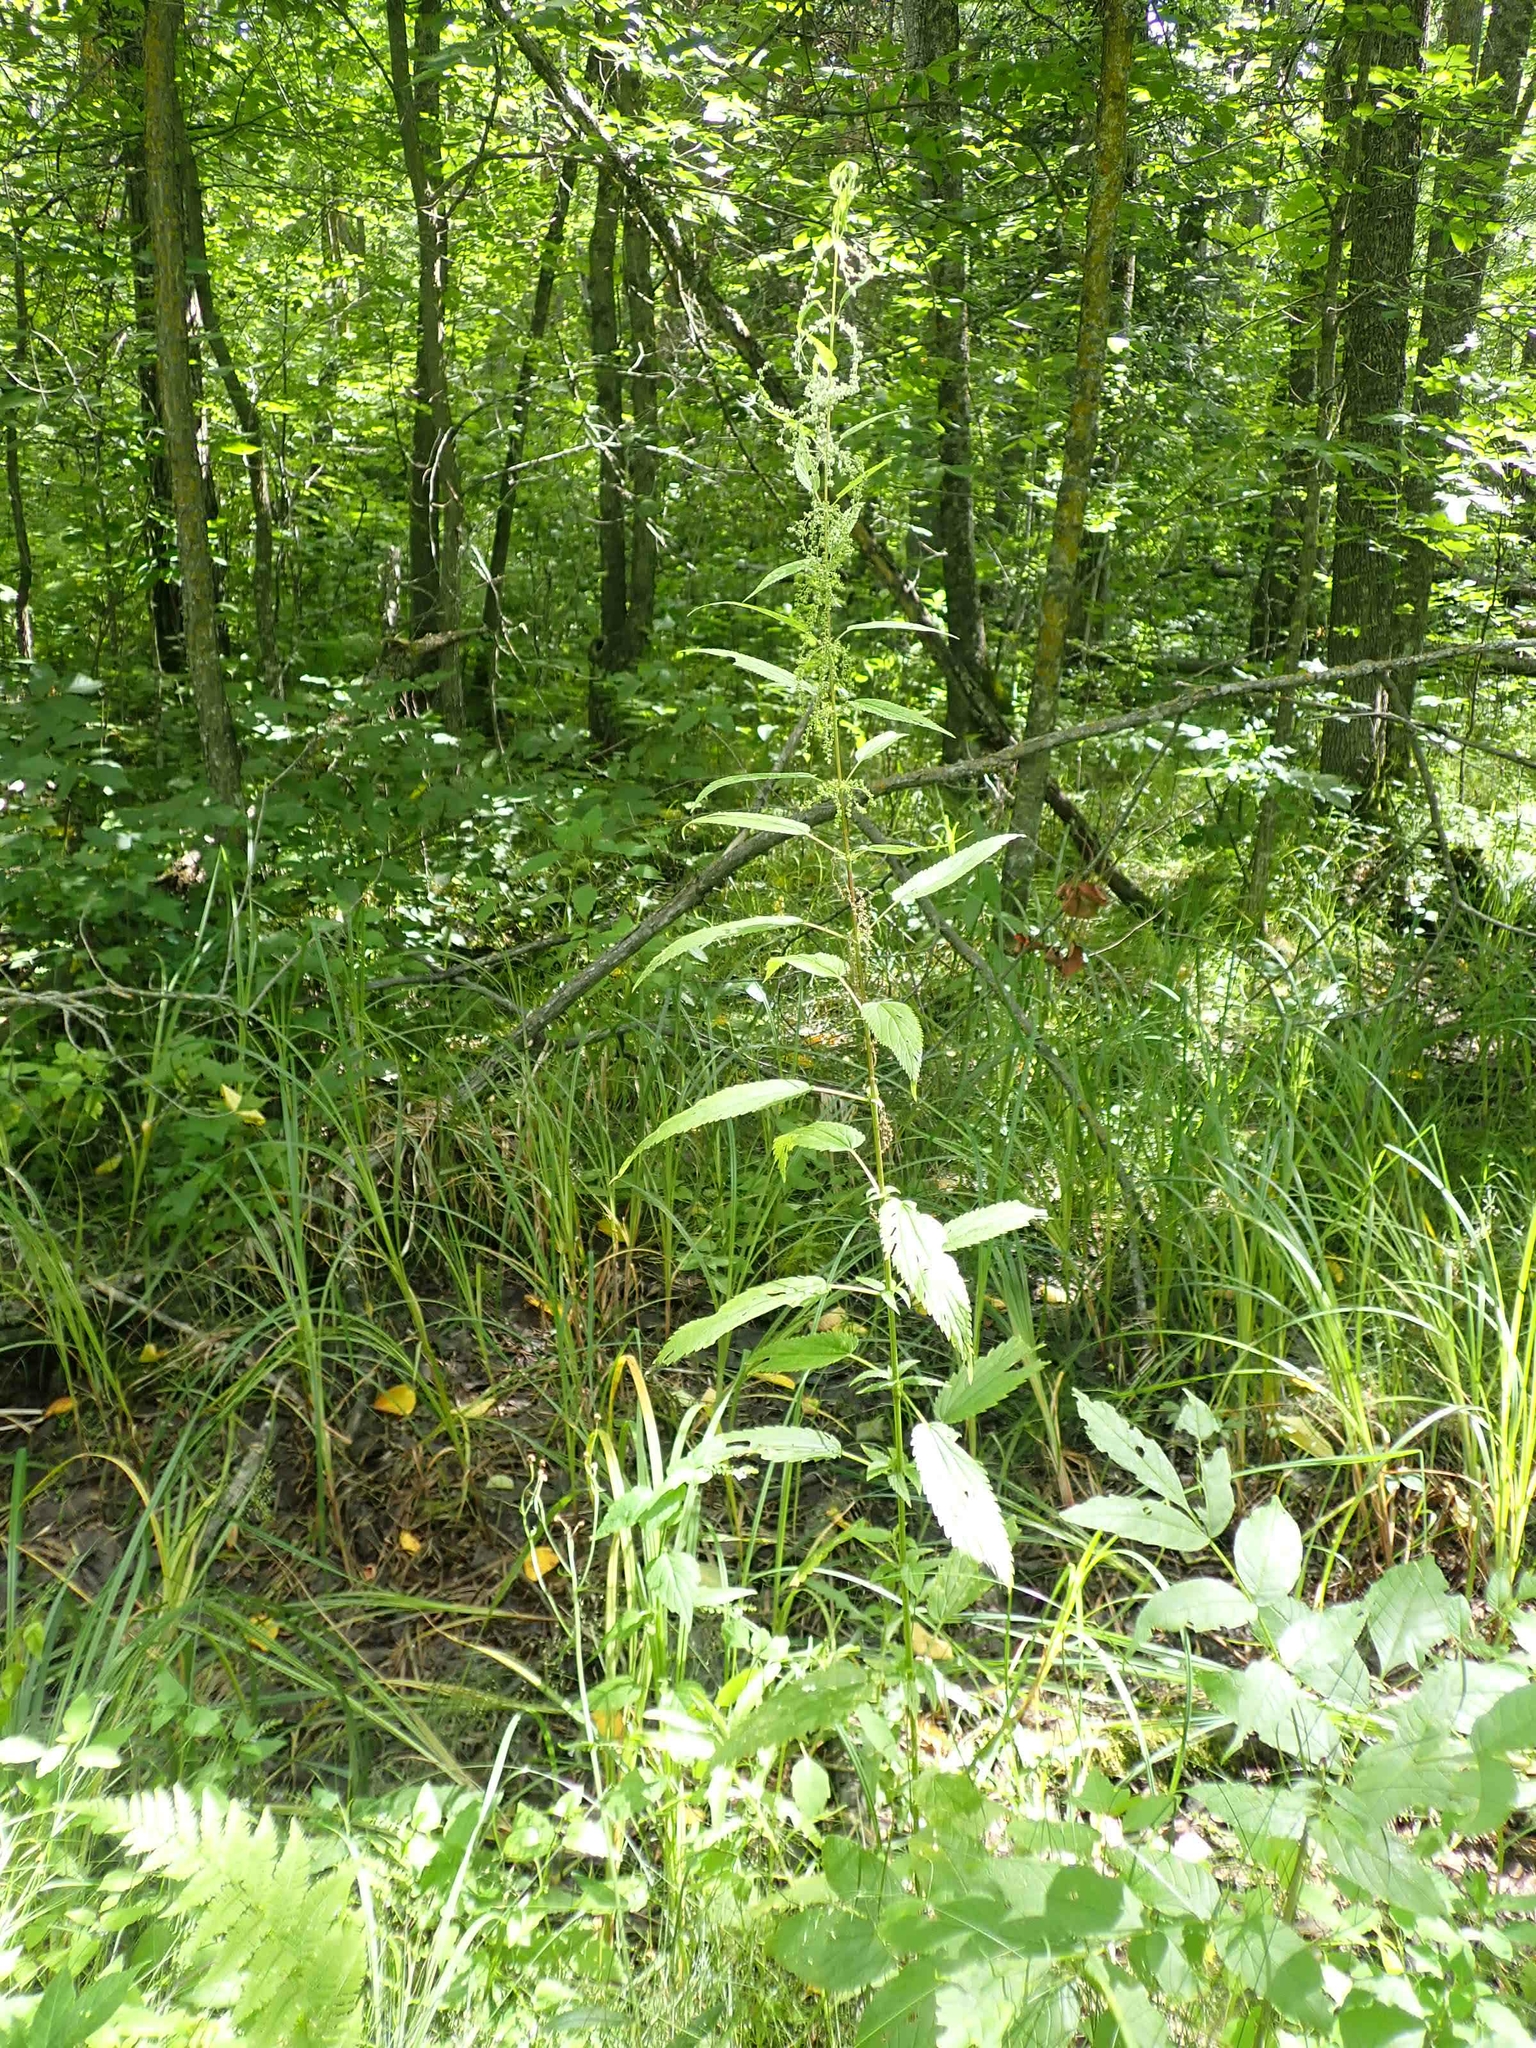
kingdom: Plantae
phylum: Tracheophyta
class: Magnoliopsida
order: Rosales
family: Urticaceae
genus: Urtica
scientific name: Urtica gracilis
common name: Slender stinging nettle
